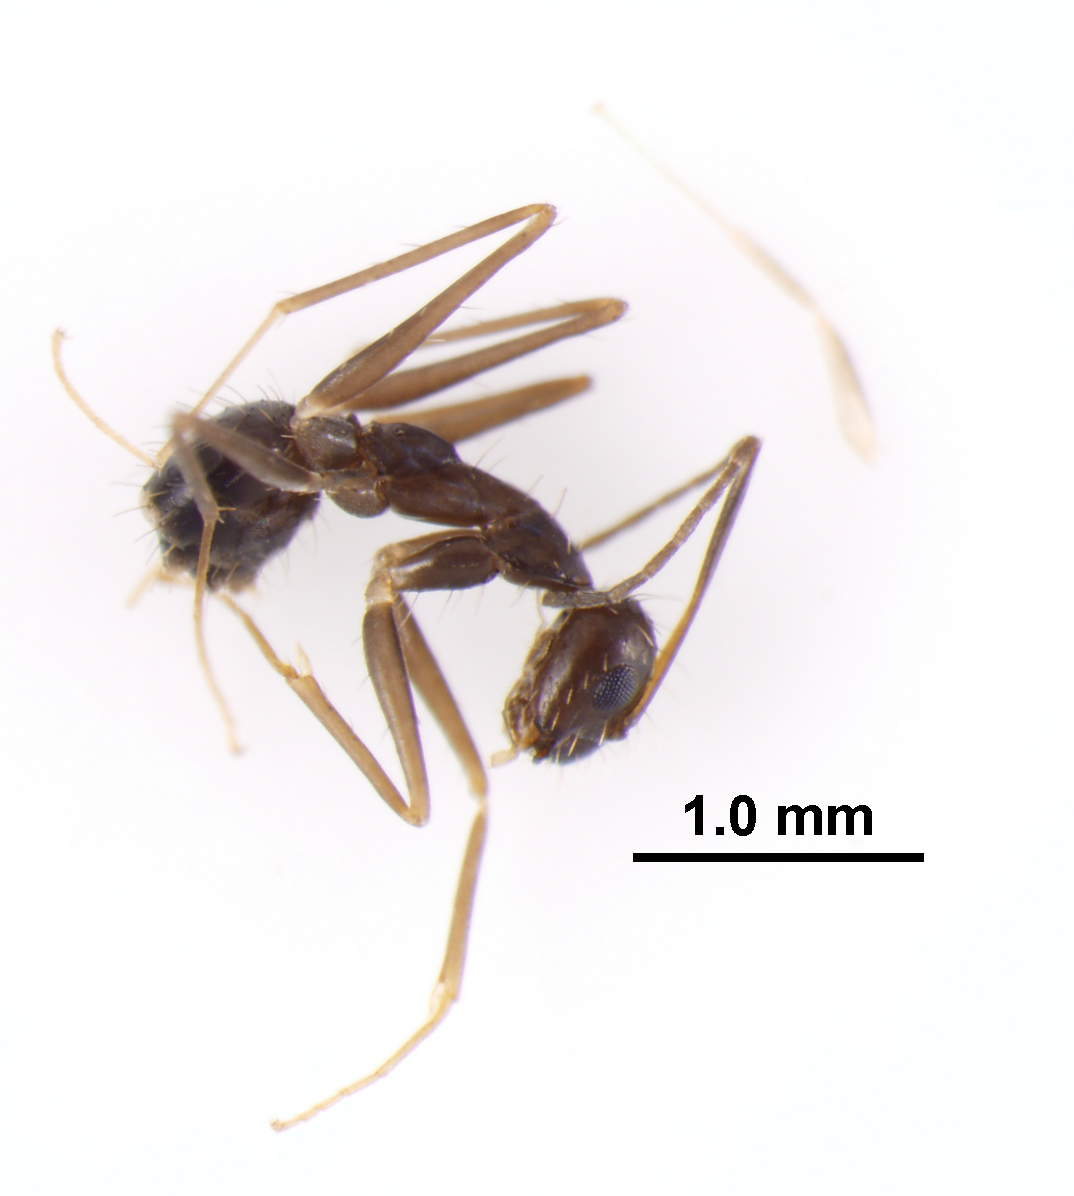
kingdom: Animalia
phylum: Arthropoda
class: Insecta
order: Hymenoptera
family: Formicidae
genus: Paratrechina
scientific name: Paratrechina longicornis
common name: Longhorned crazy ant
